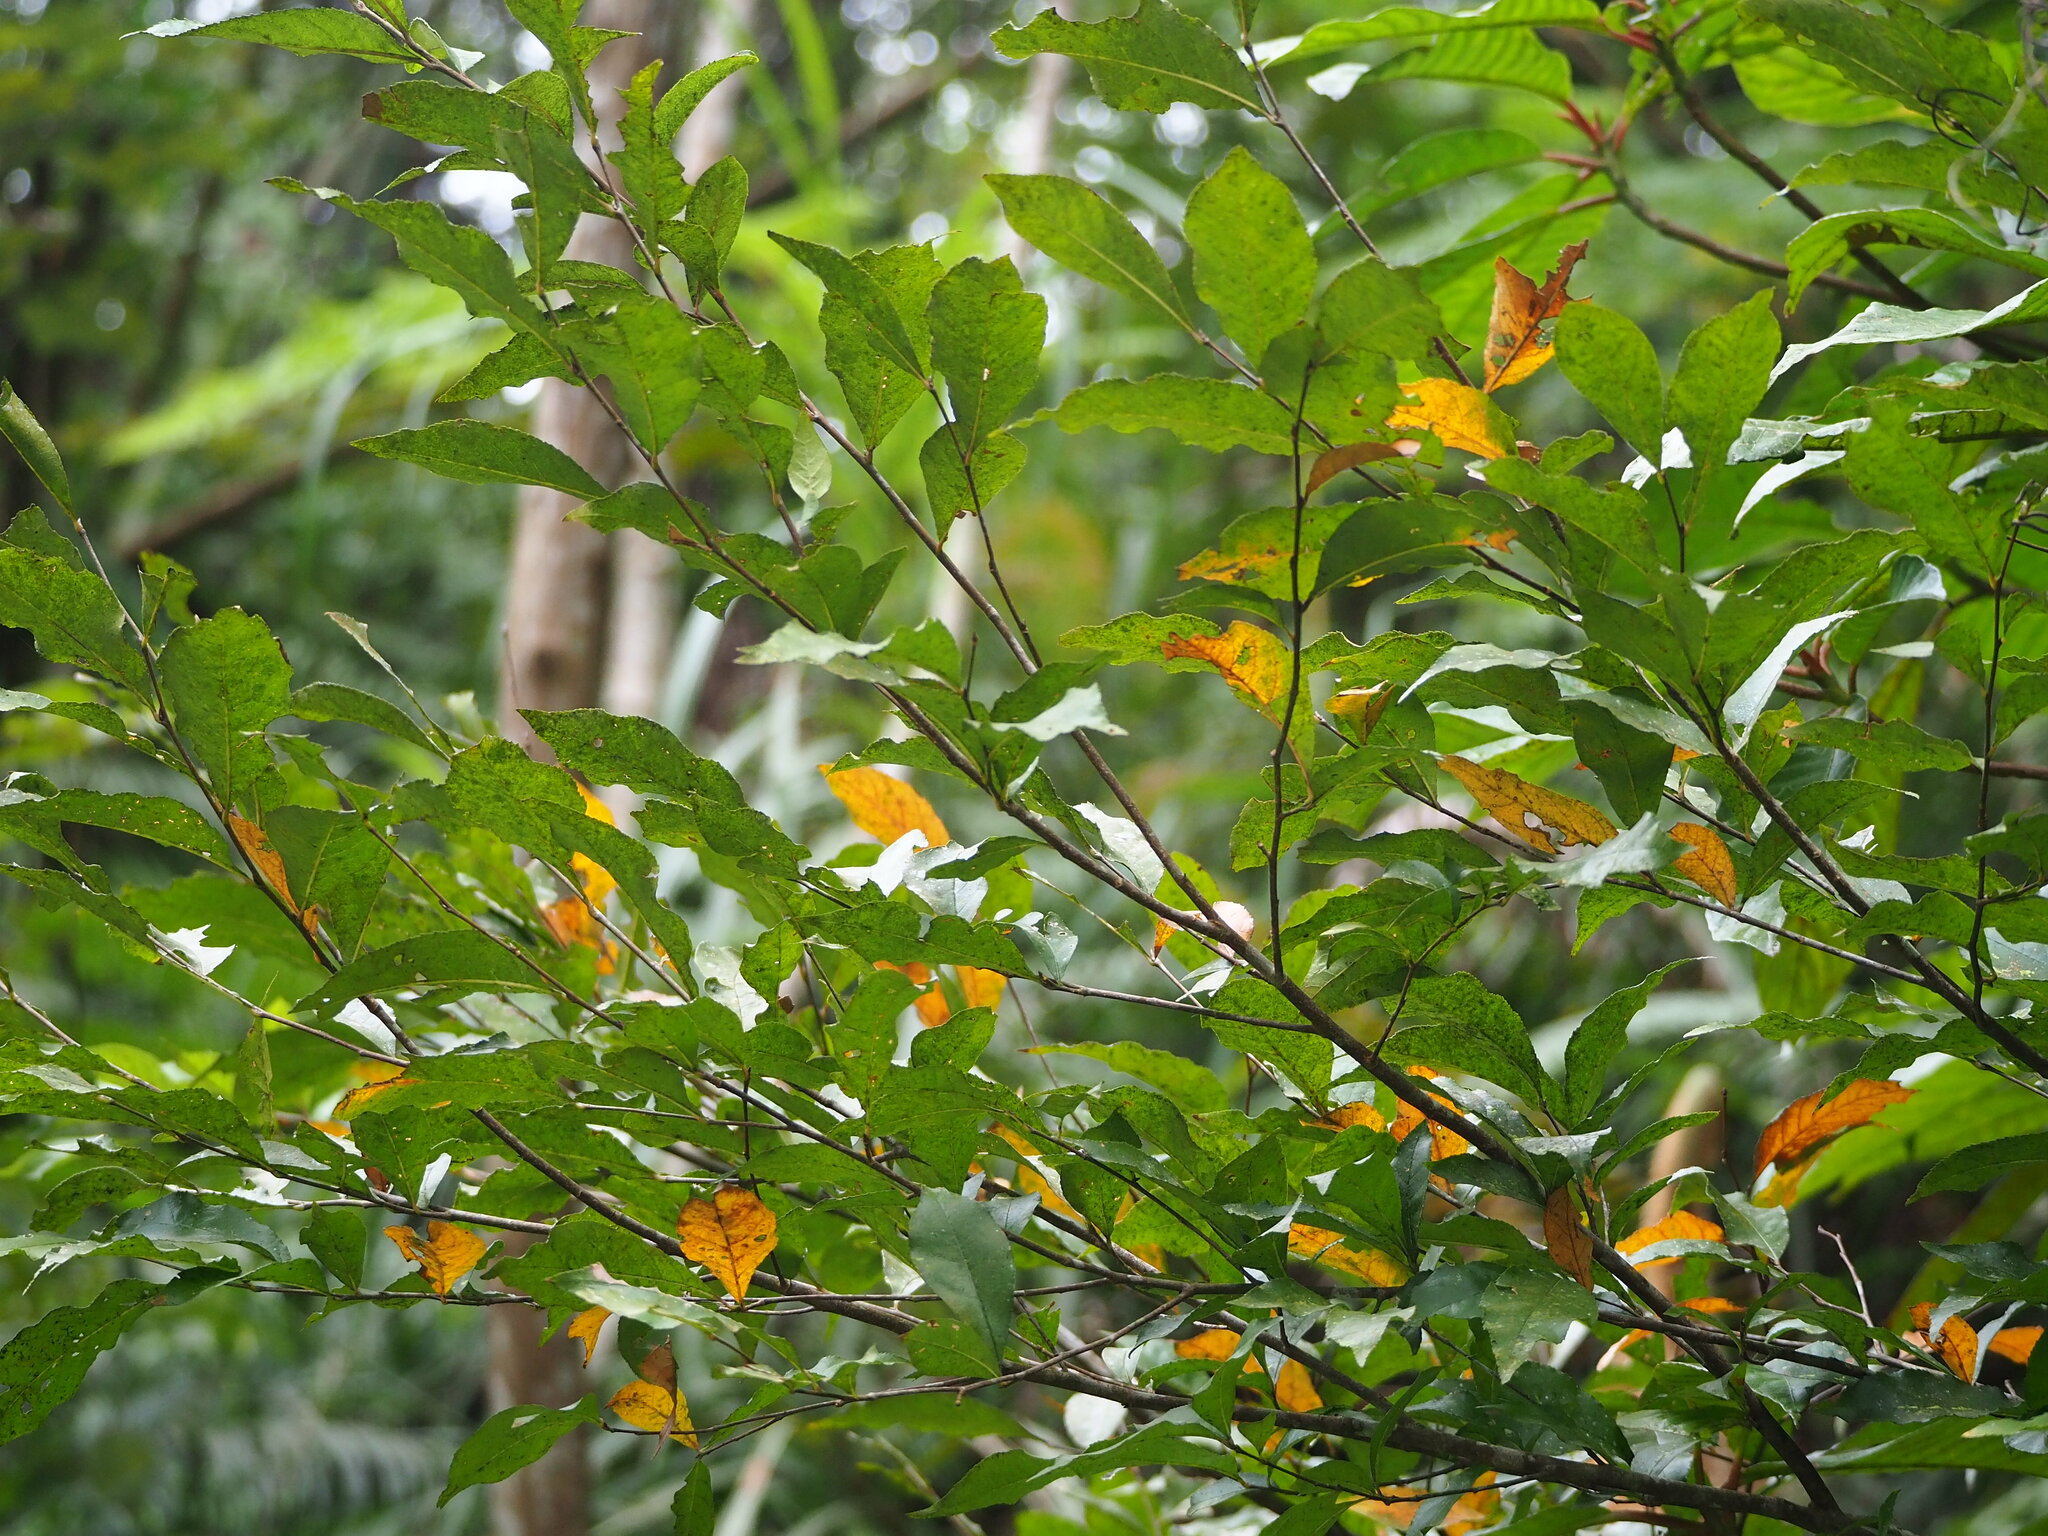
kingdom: Plantae
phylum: Tracheophyta
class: Magnoliopsida
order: Rosales
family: Rosaceae
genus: Pourthiaea
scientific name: Pourthiaea arguta
